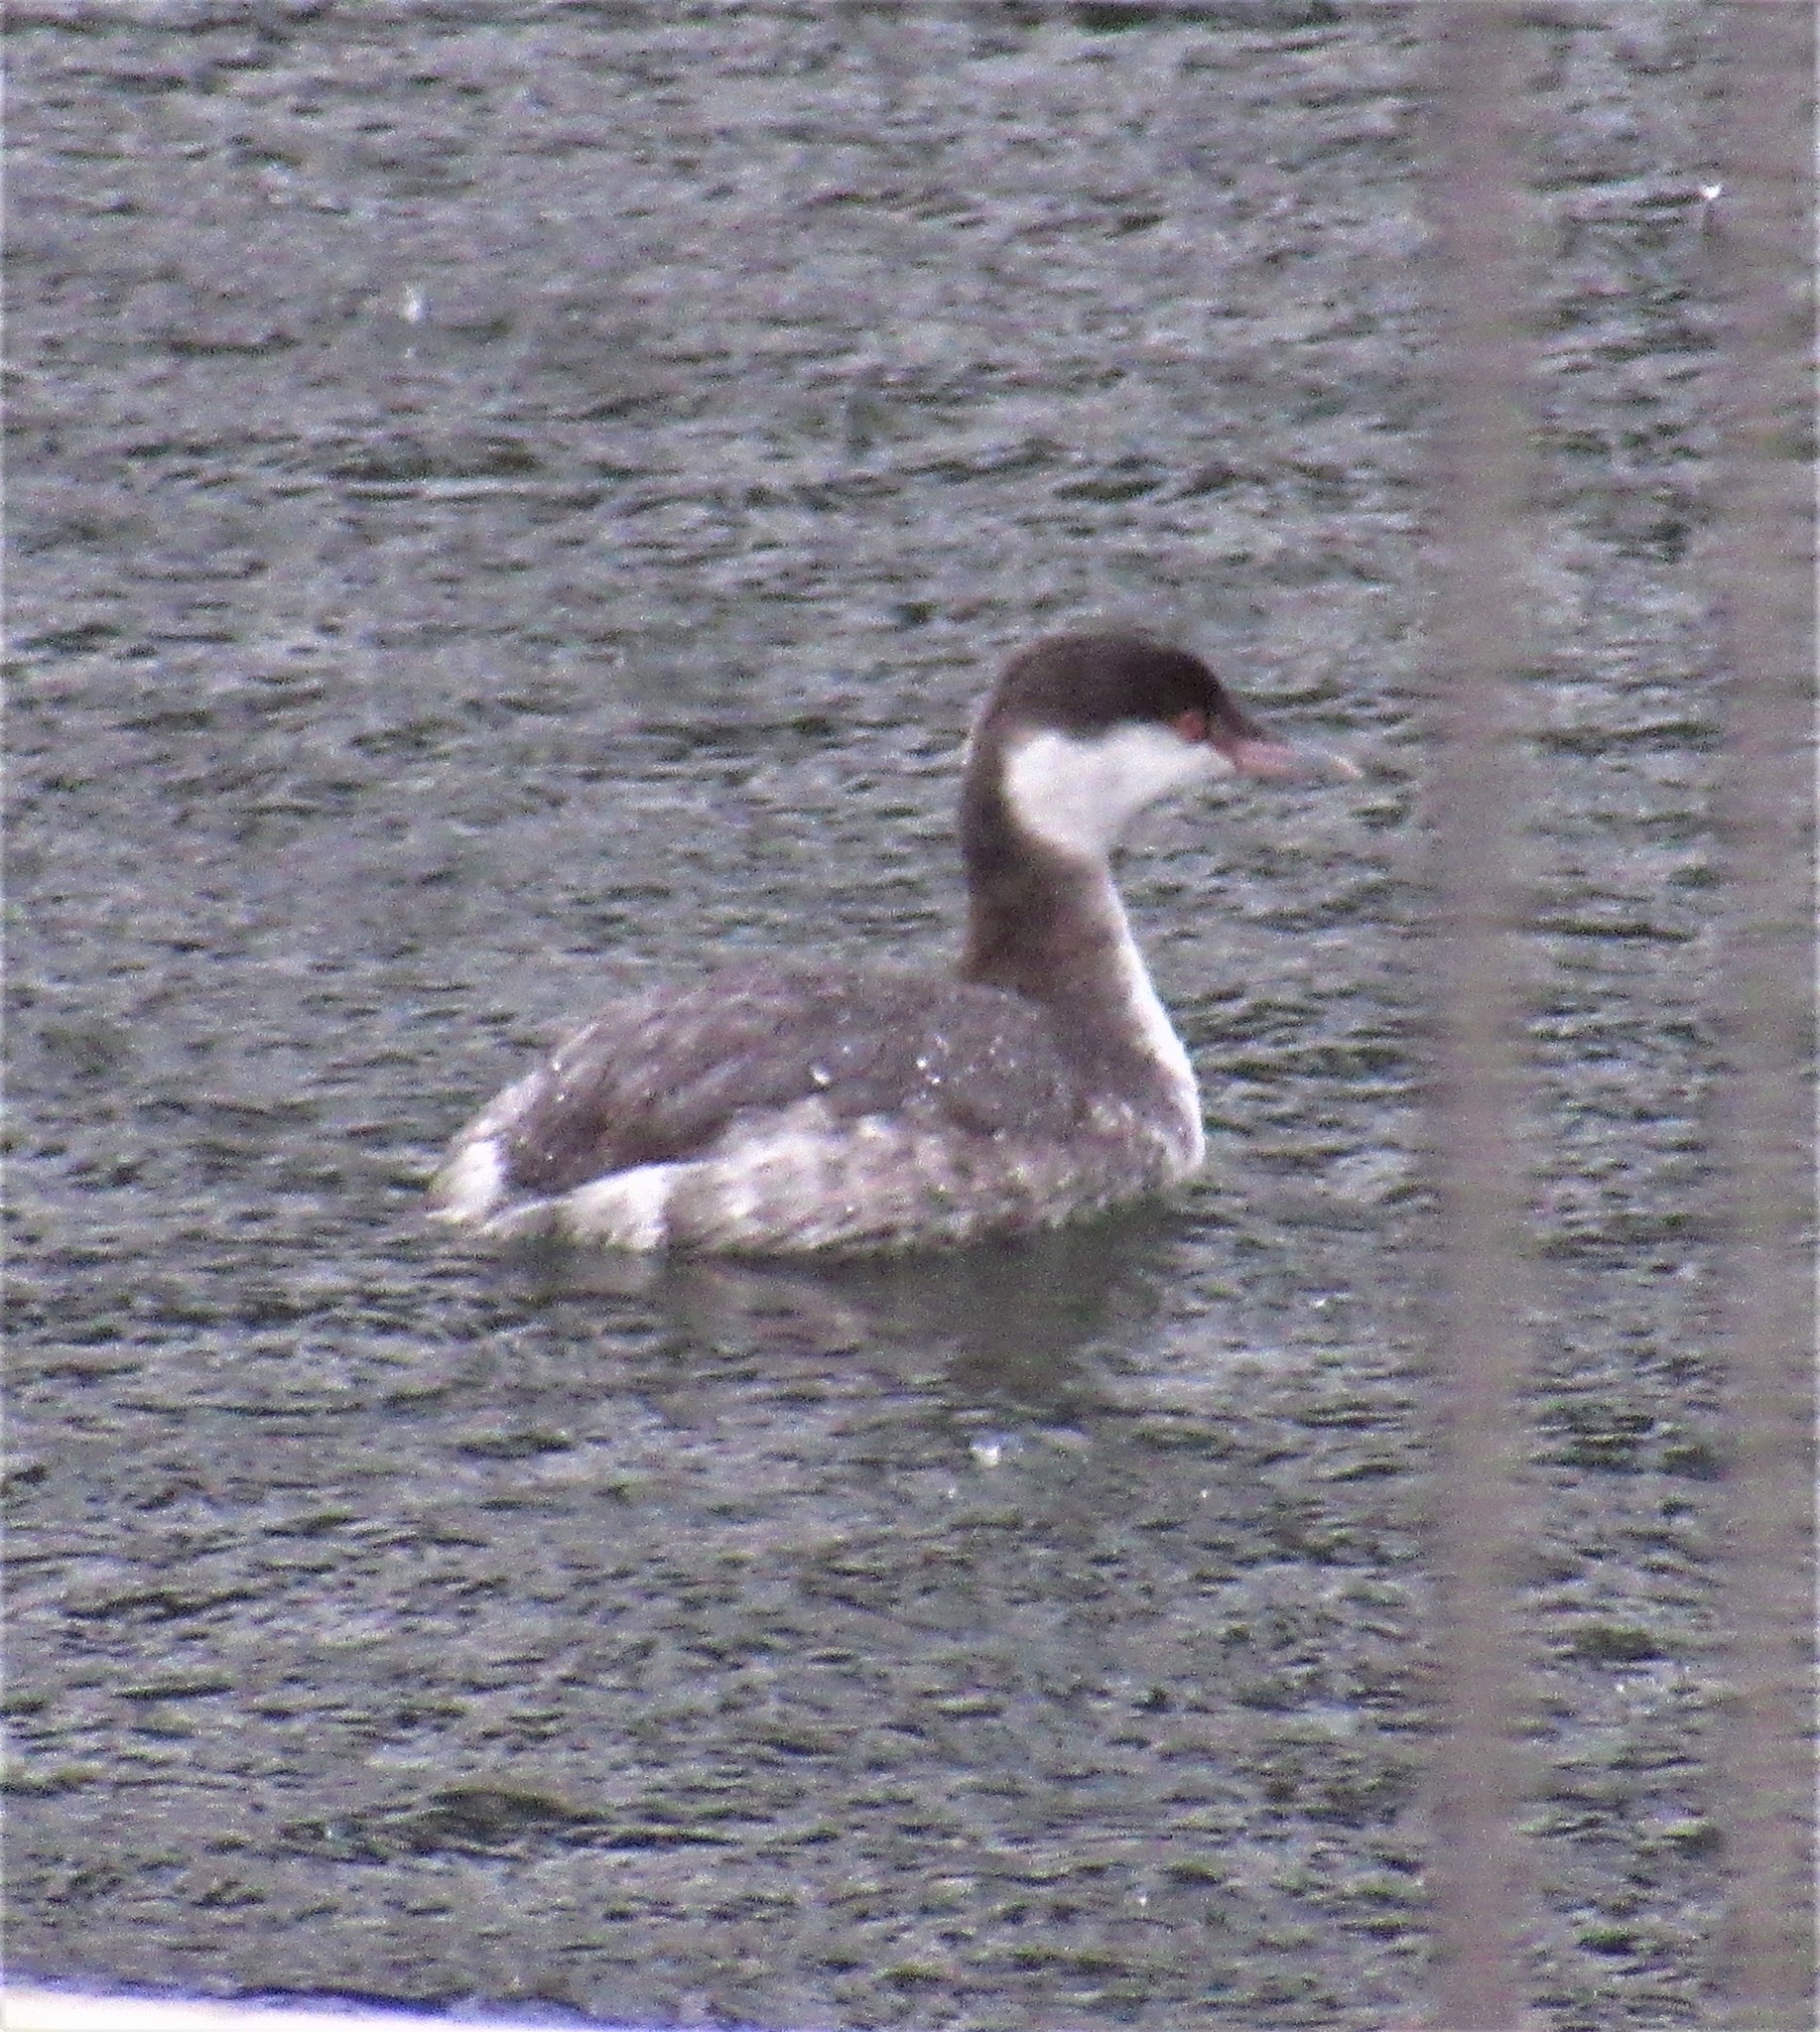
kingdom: Animalia
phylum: Chordata
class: Aves
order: Podicipediformes
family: Podicipedidae
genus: Podiceps
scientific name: Podiceps auritus
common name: Horned grebe
